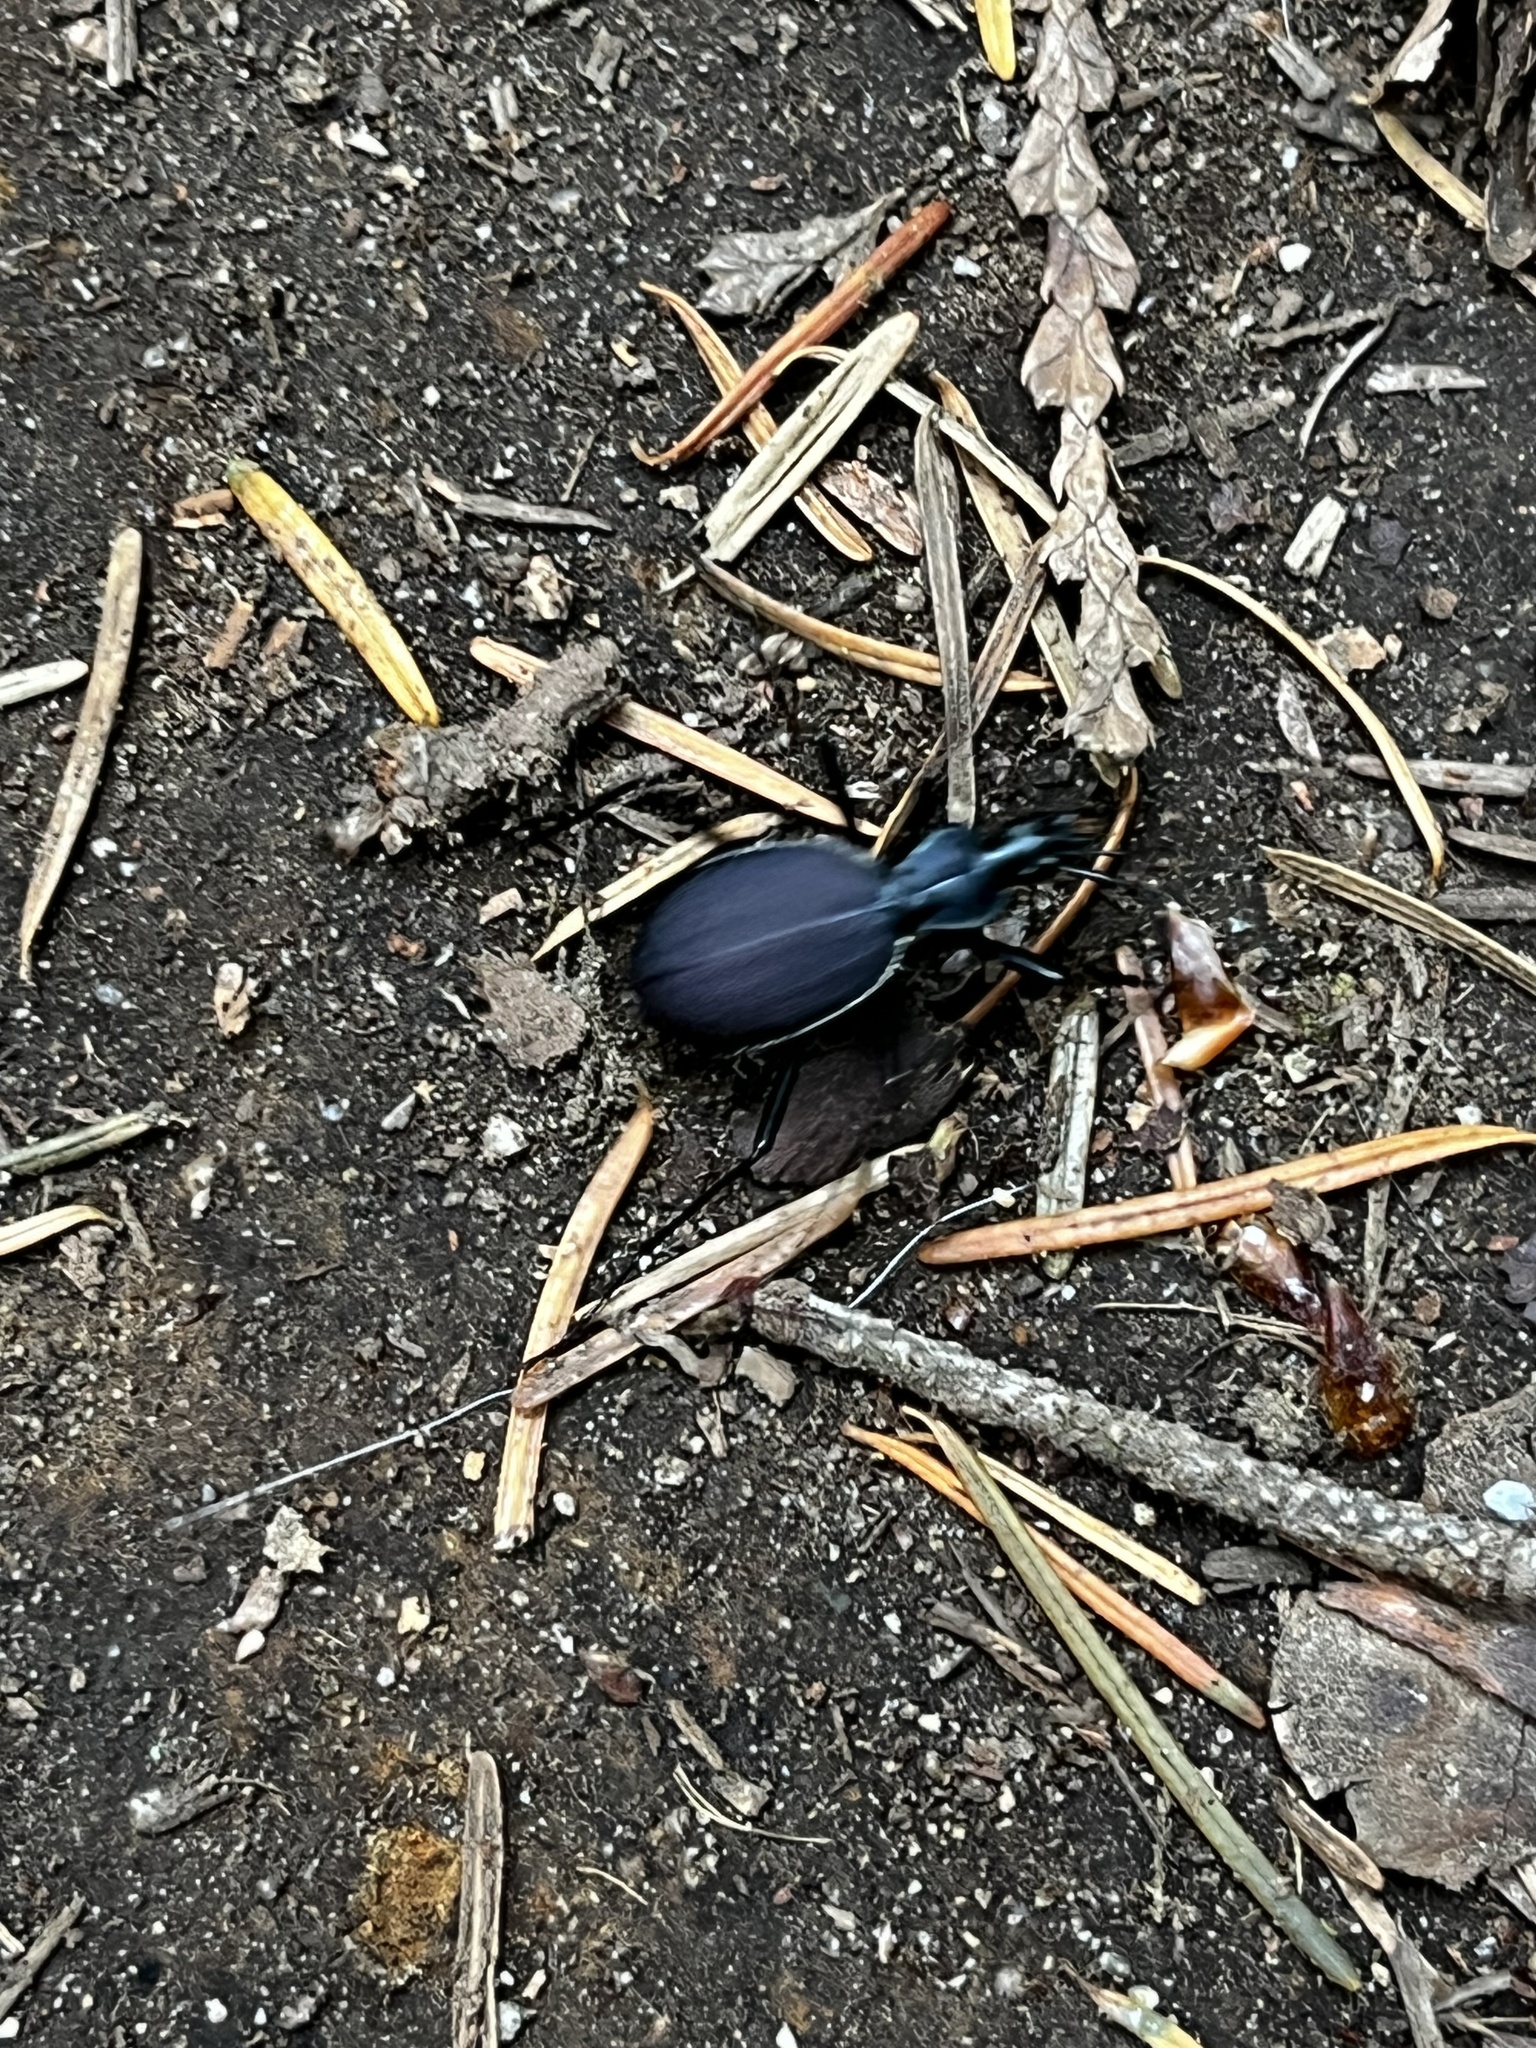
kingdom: Animalia
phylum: Arthropoda
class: Insecta
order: Coleoptera
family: Carabidae
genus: Scaphinotus
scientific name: Scaphinotus angusticollis
